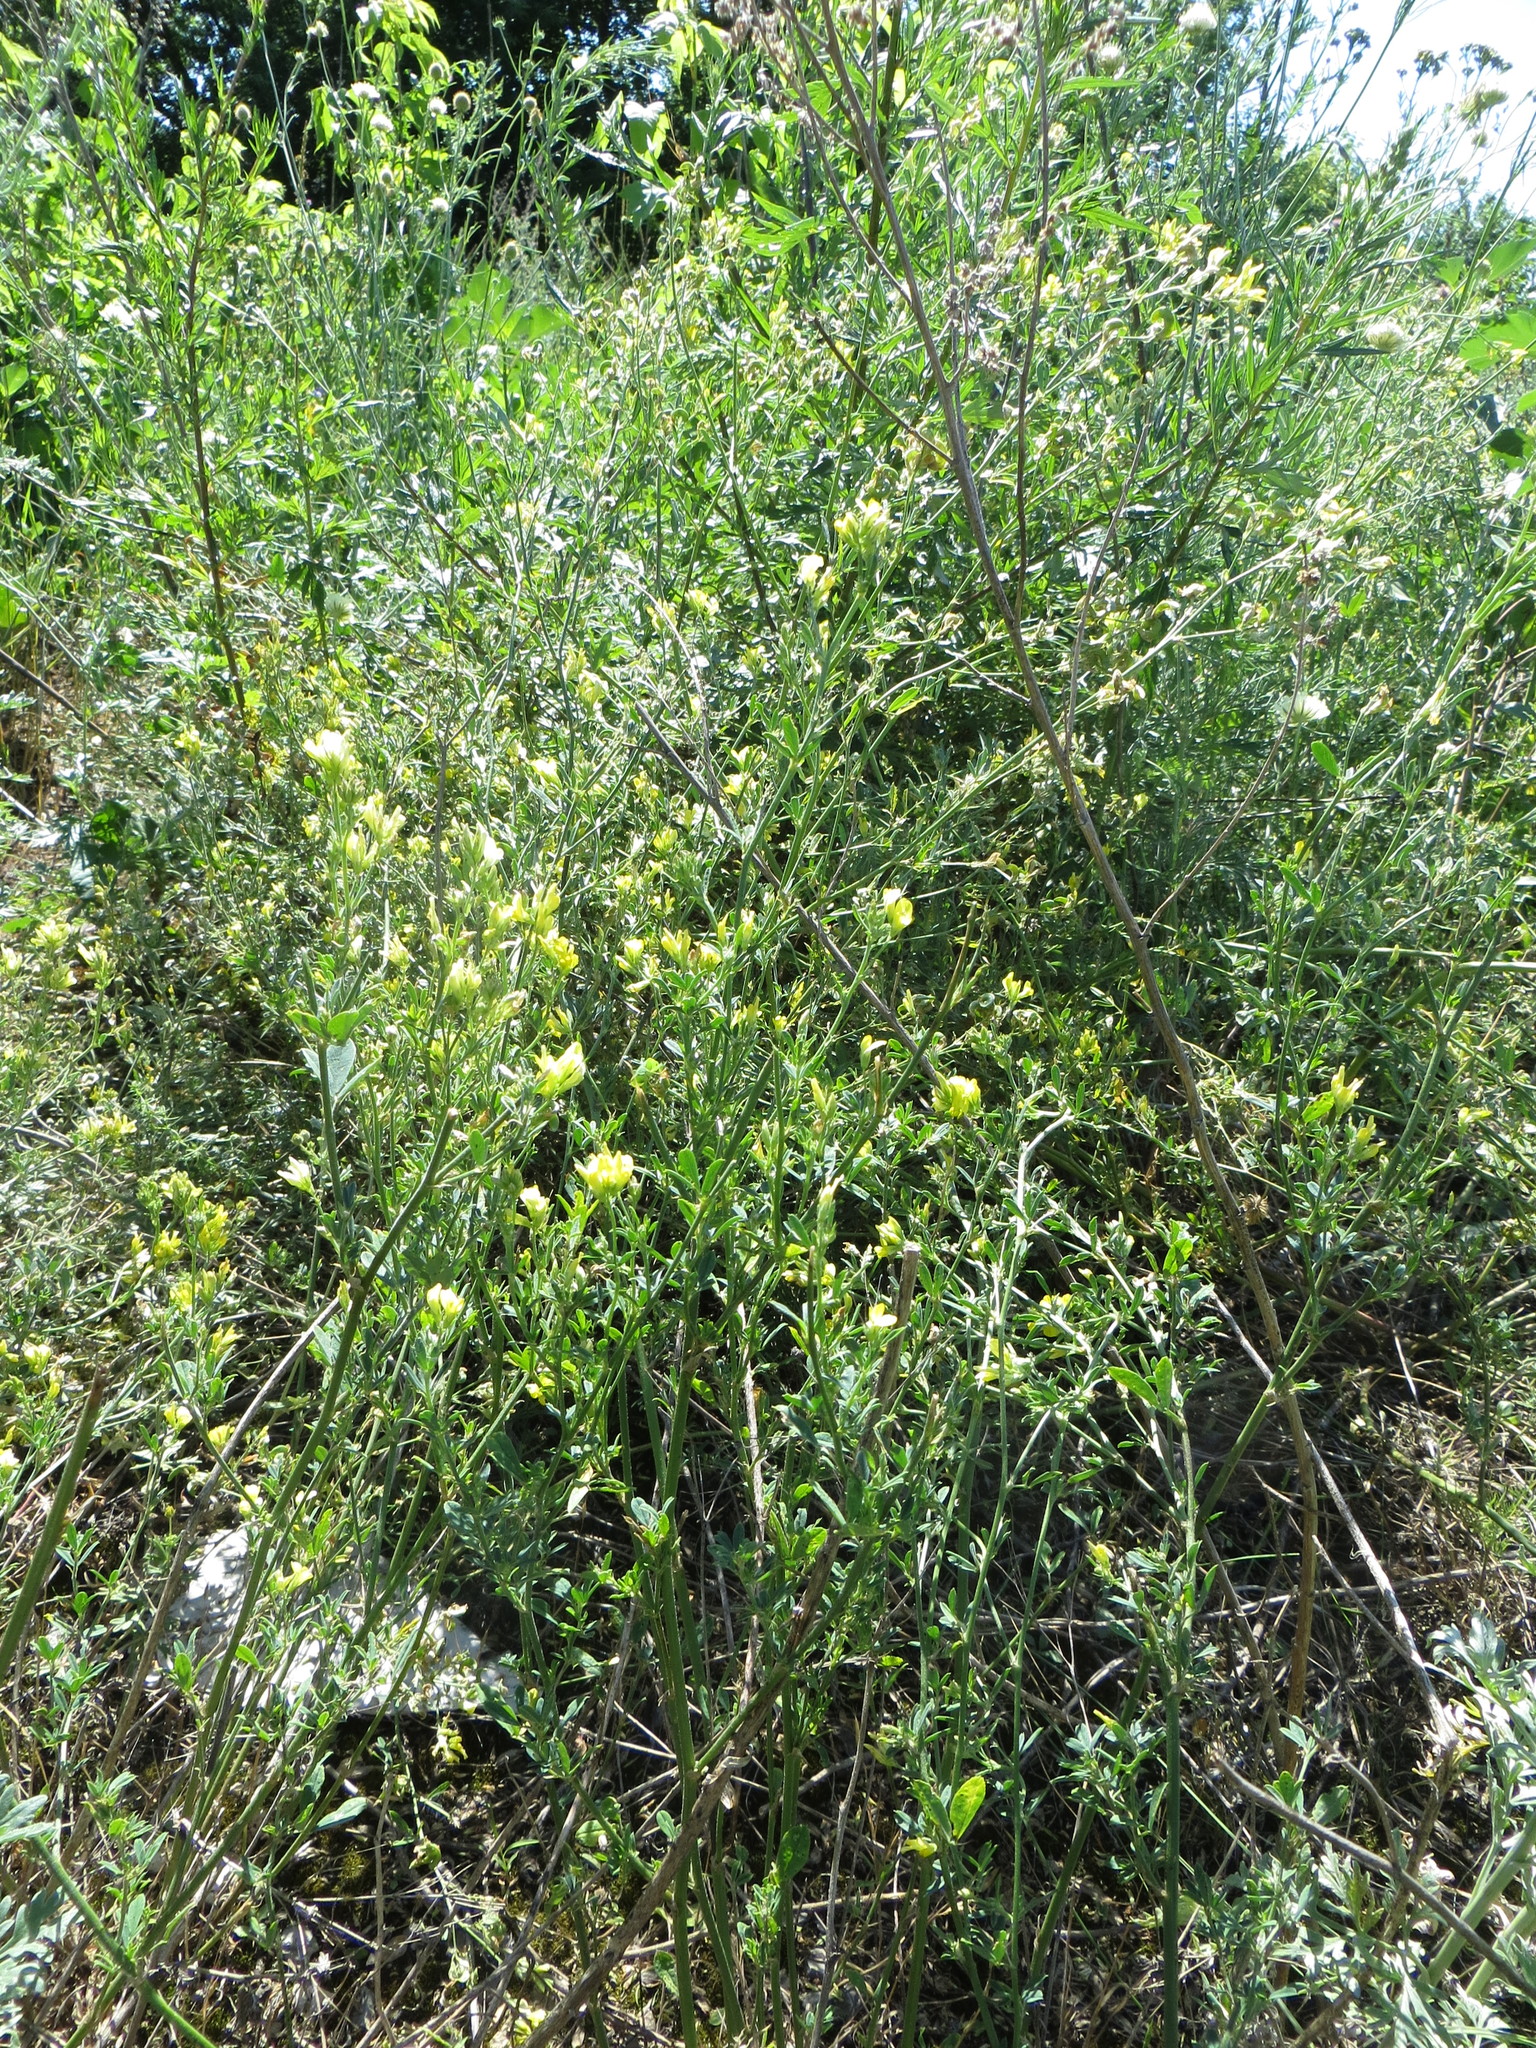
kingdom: Plantae
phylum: Tracheophyta
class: Magnoliopsida
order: Fabales
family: Fabaceae
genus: Medicago
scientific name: Medicago falcata
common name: Sickle medick
